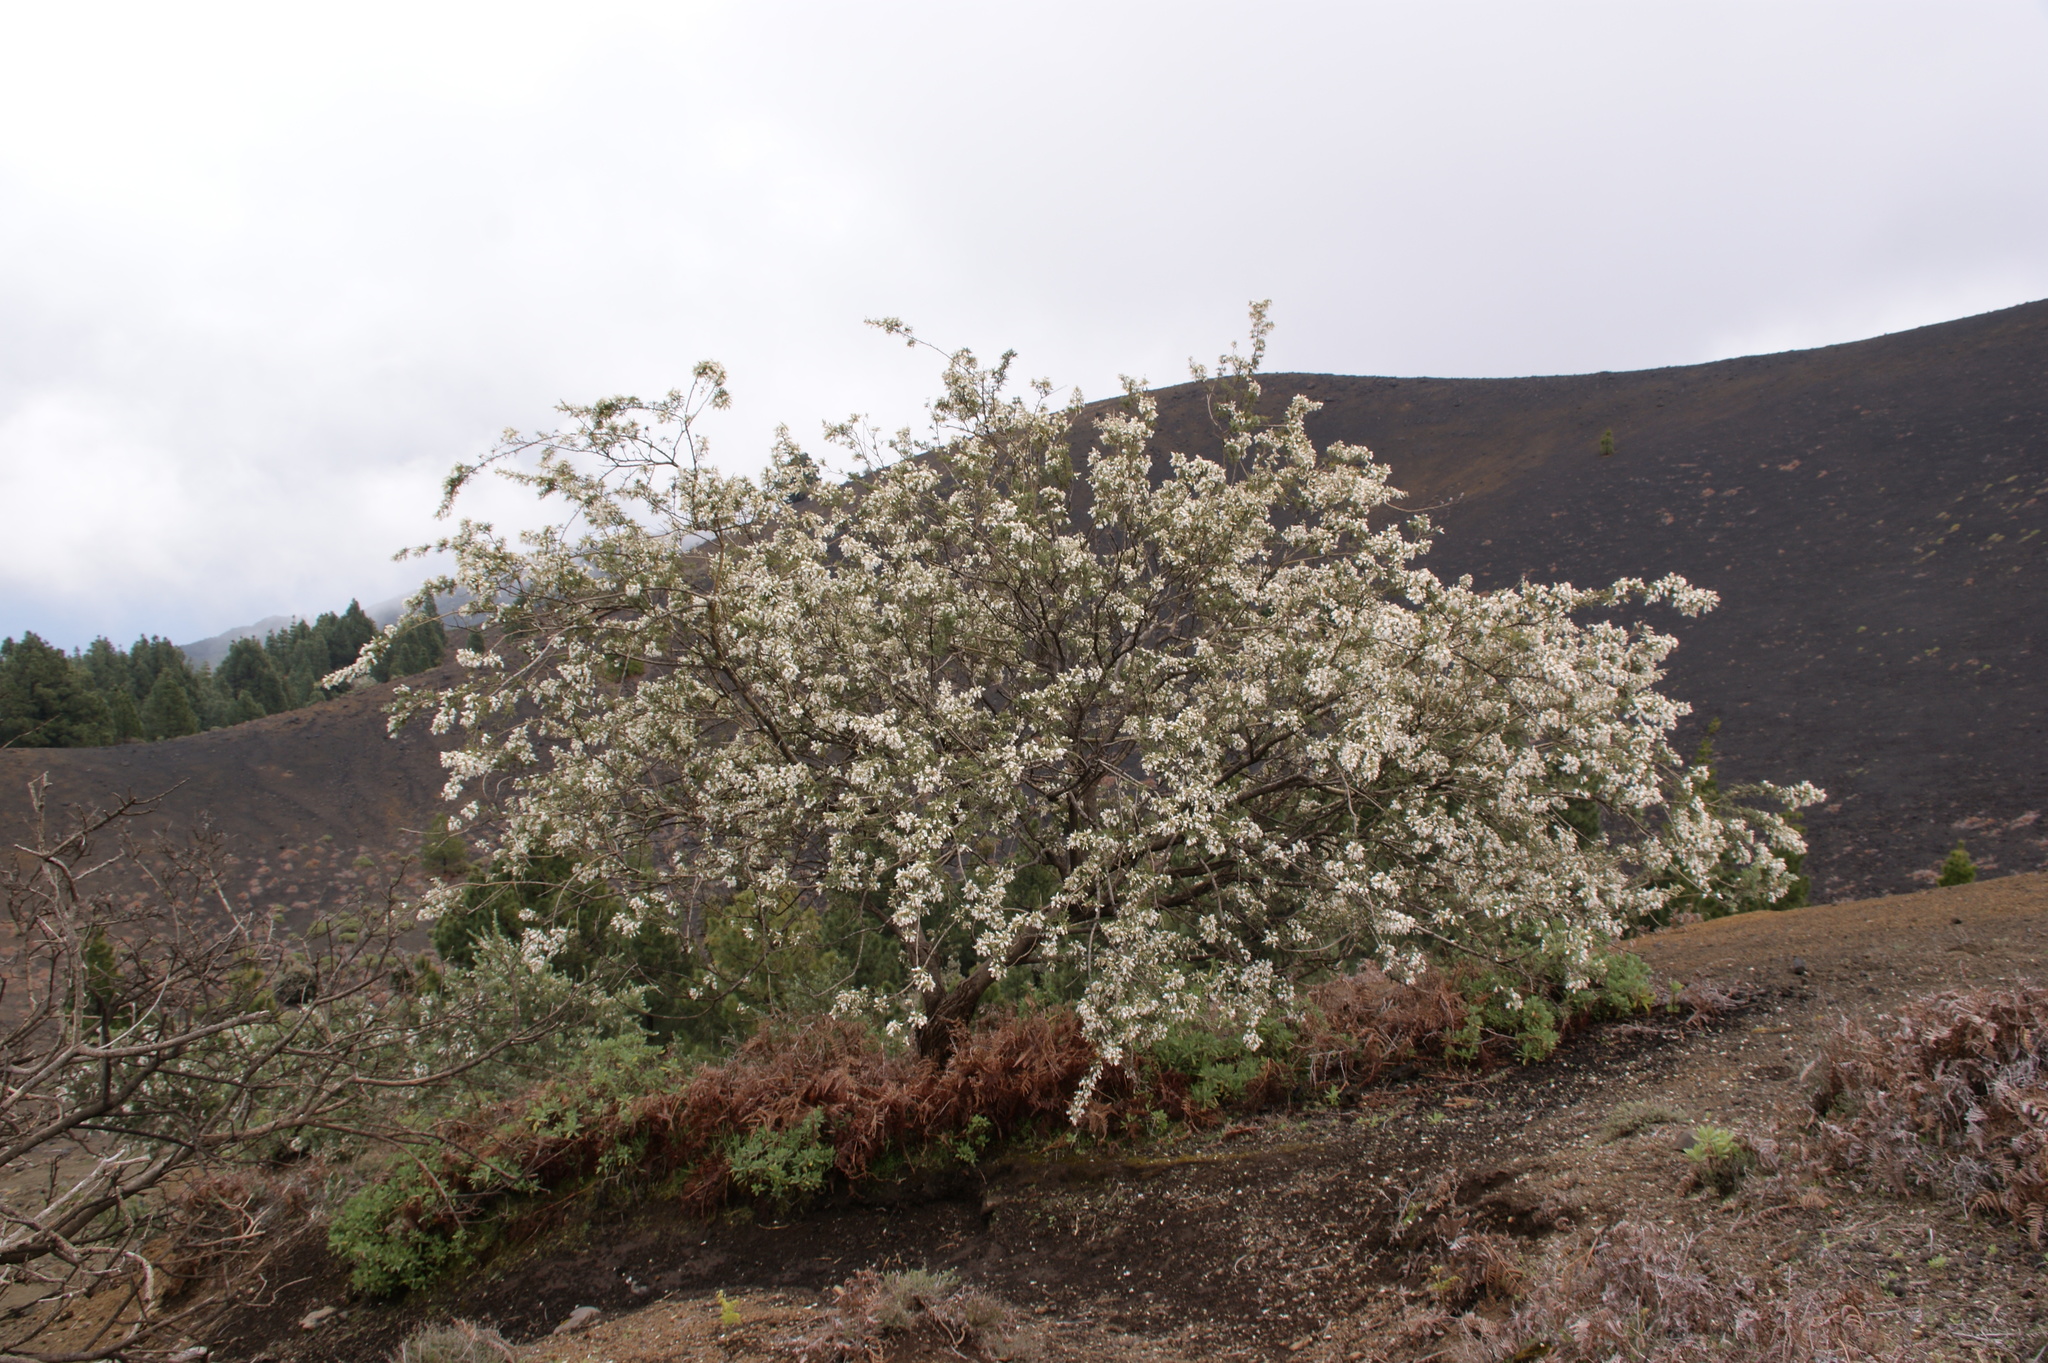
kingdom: Plantae
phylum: Tracheophyta
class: Magnoliopsida
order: Fabales
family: Fabaceae
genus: Chamaecytisus
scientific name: Chamaecytisus prolifer
